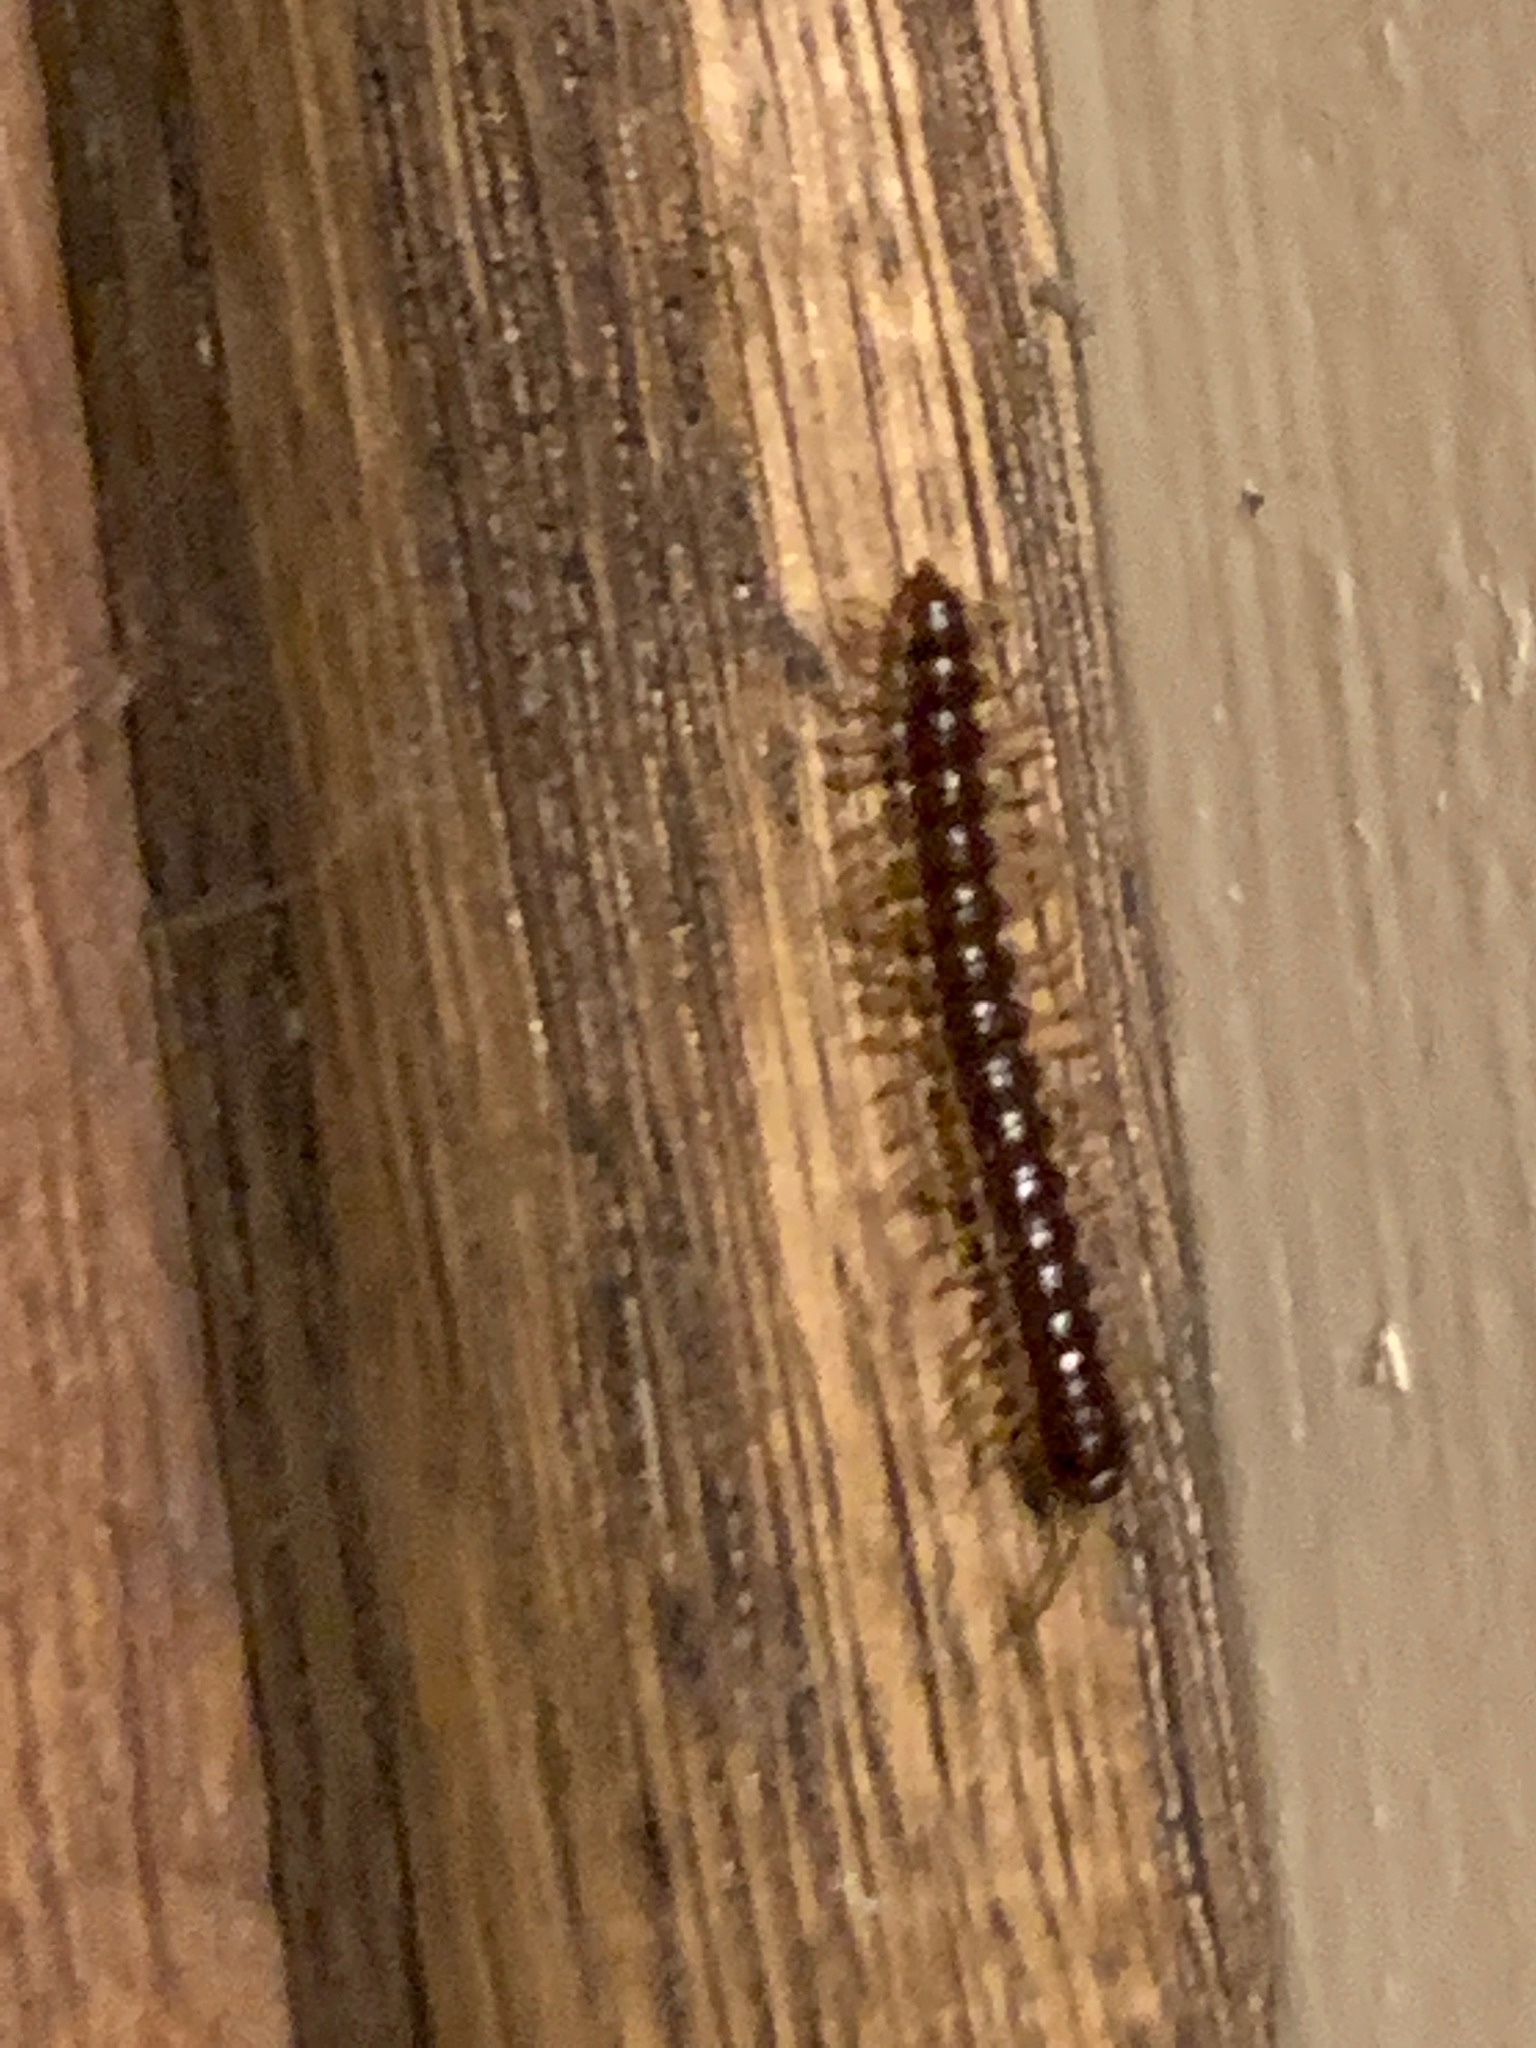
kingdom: Animalia
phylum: Arthropoda
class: Diplopoda
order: Polydesmida
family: Paradoxosomatidae
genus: Oxidus
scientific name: Oxidus gracilis
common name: Greenhouse millipede
